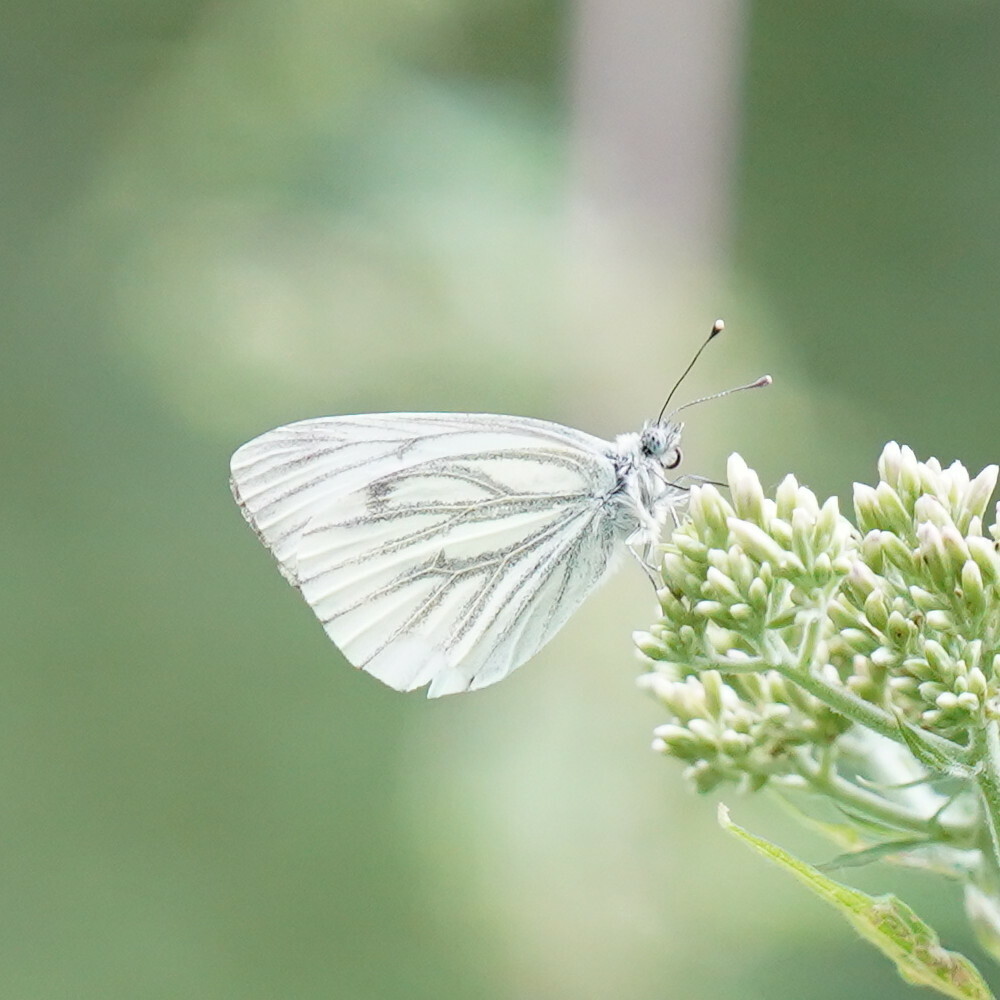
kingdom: Animalia
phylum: Arthropoda
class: Insecta
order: Lepidoptera
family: Pieridae
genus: Pieris
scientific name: Pieris napi
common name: Green-veined white
